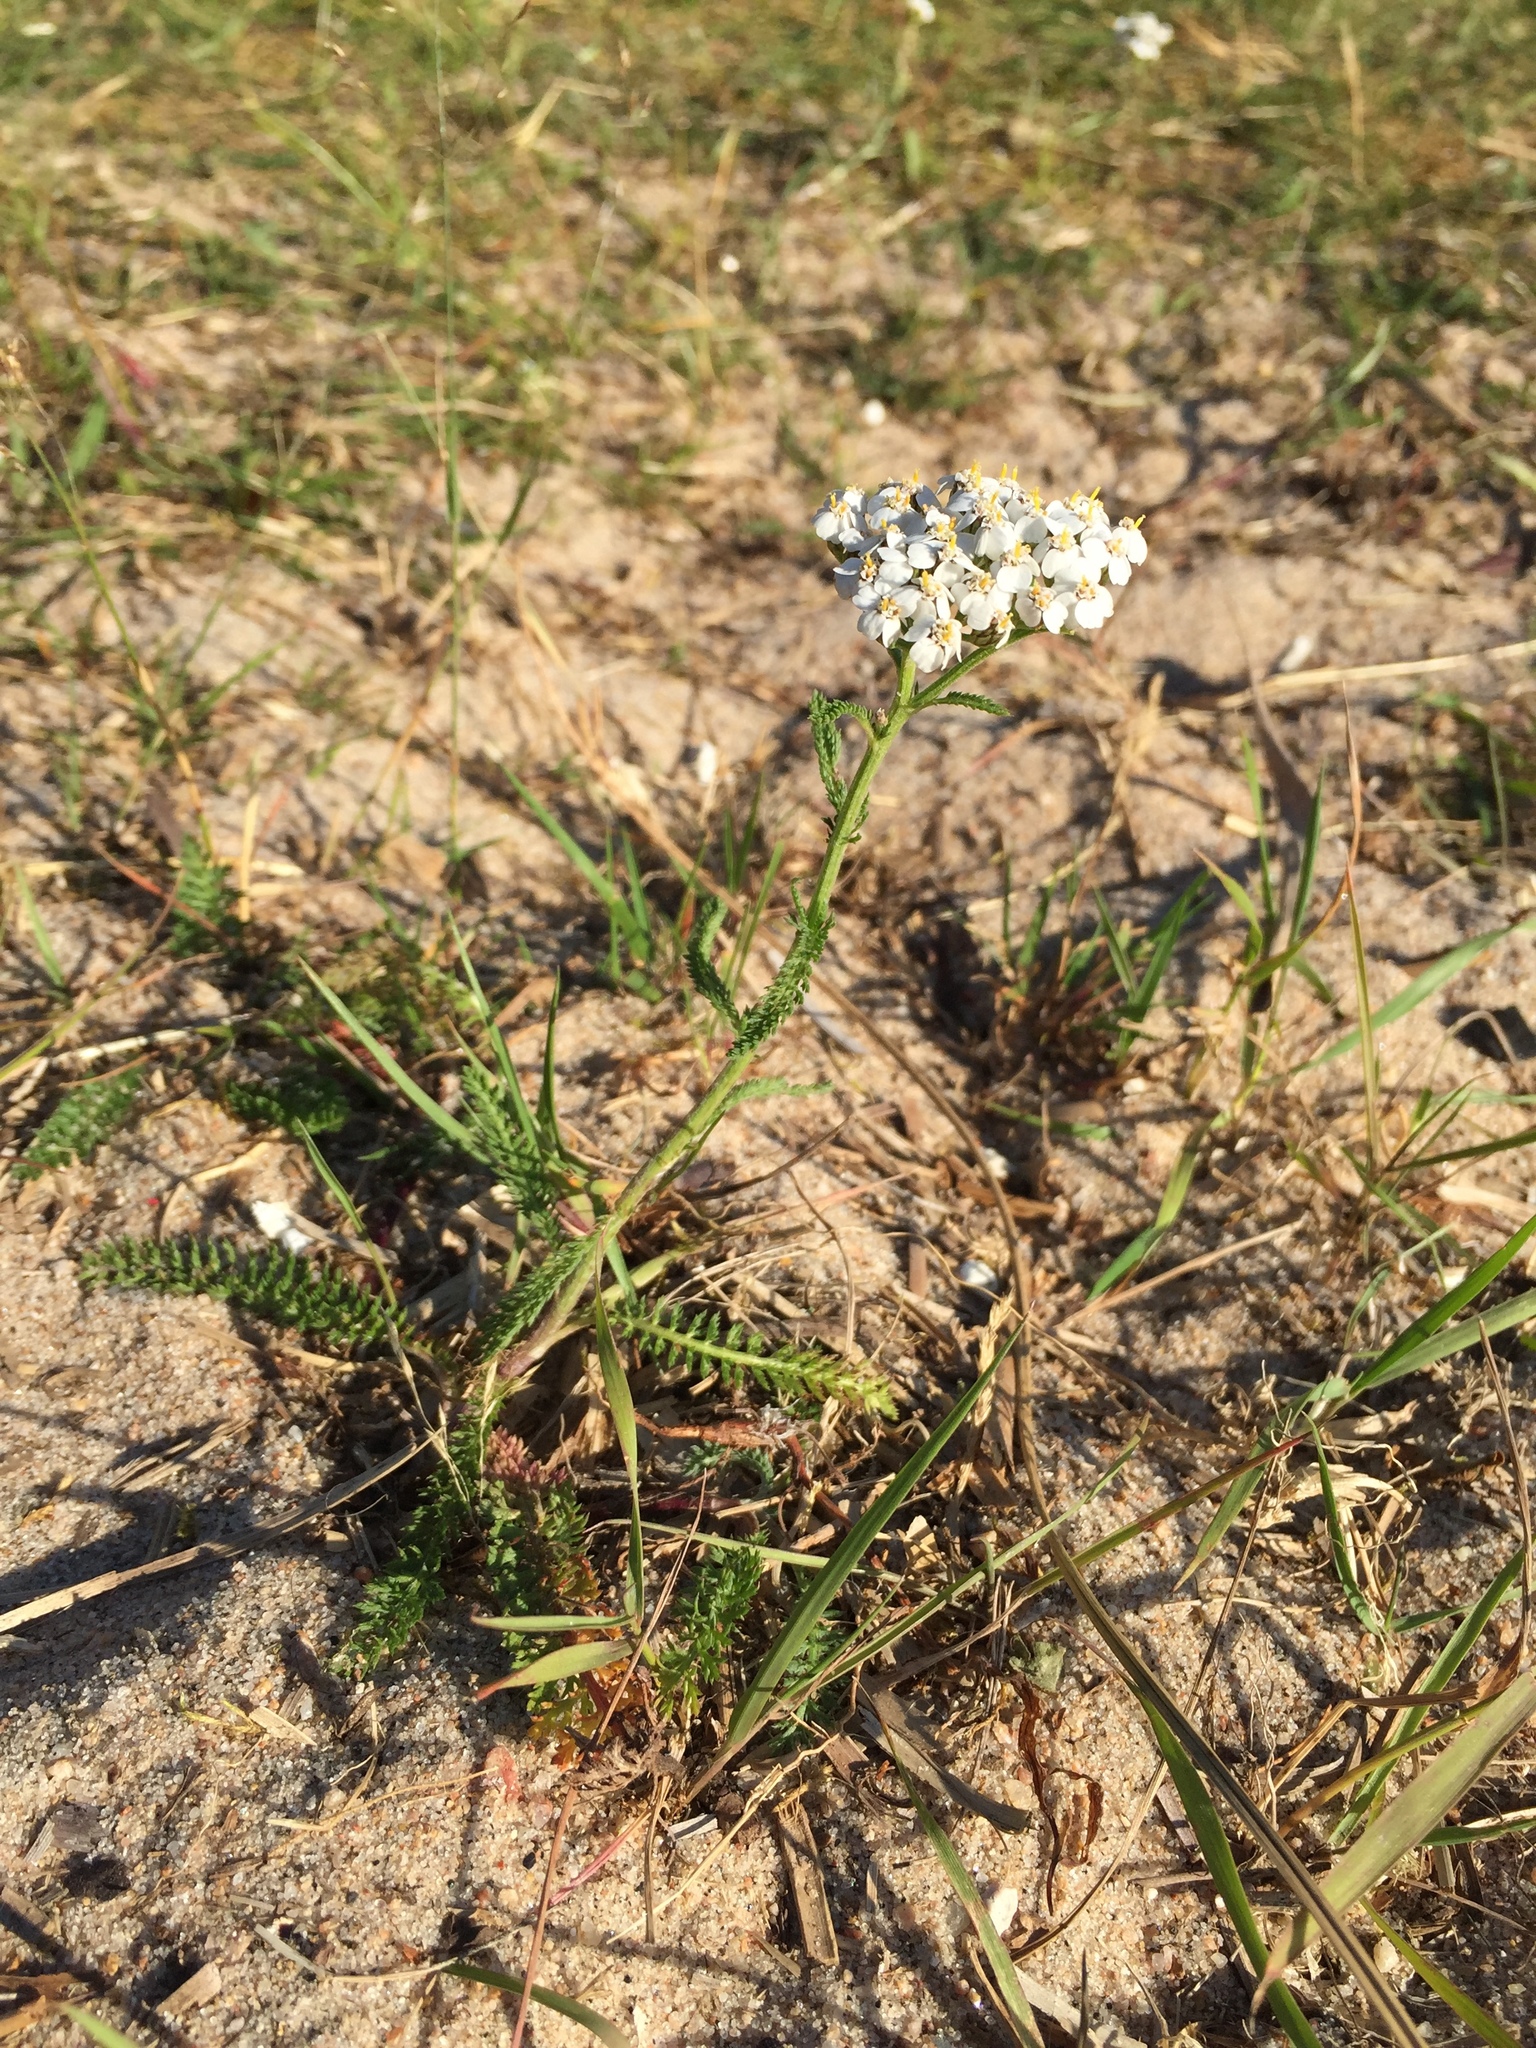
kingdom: Plantae
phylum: Tracheophyta
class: Magnoliopsida
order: Asterales
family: Asteraceae
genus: Achillea
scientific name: Achillea millefolium
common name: Yarrow
